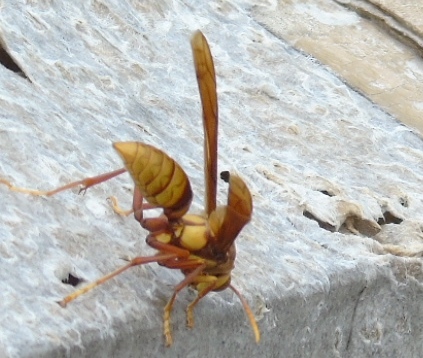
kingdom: Animalia
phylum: Arthropoda
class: Insecta
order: Hymenoptera
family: Eumenidae
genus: Polistes
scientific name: Polistes carnifex
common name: Paper wasp
